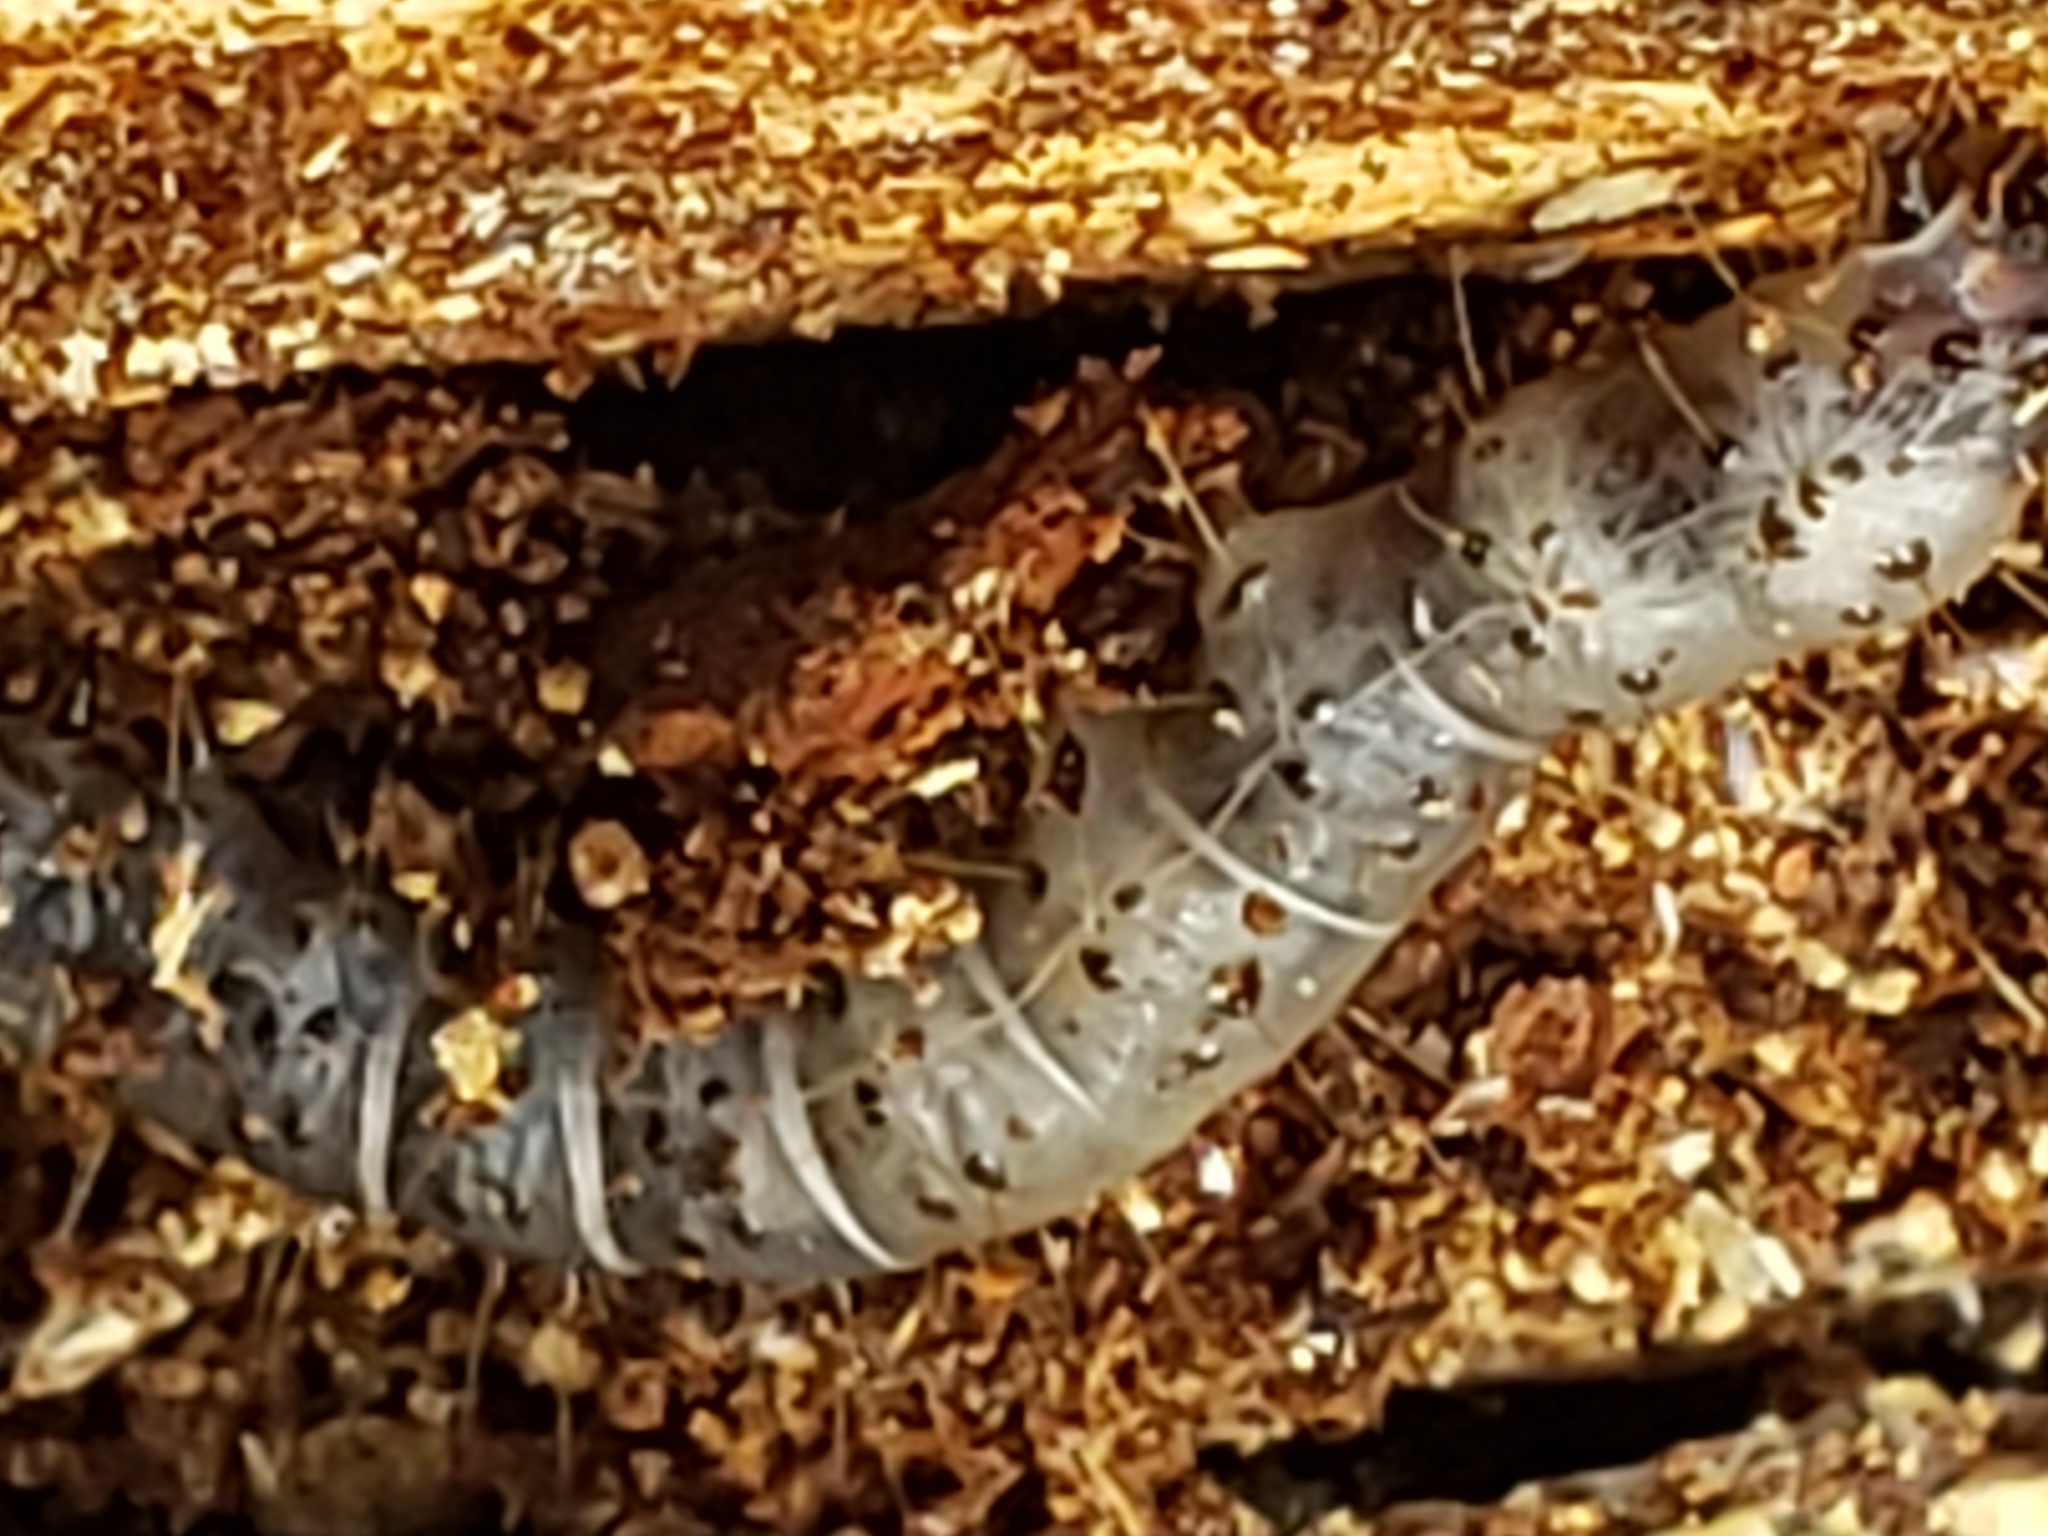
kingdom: Animalia
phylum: Arthropoda
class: Insecta
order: Lepidoptera
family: Erebidae
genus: Scolecocampa
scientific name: Scolecocampa liburna
